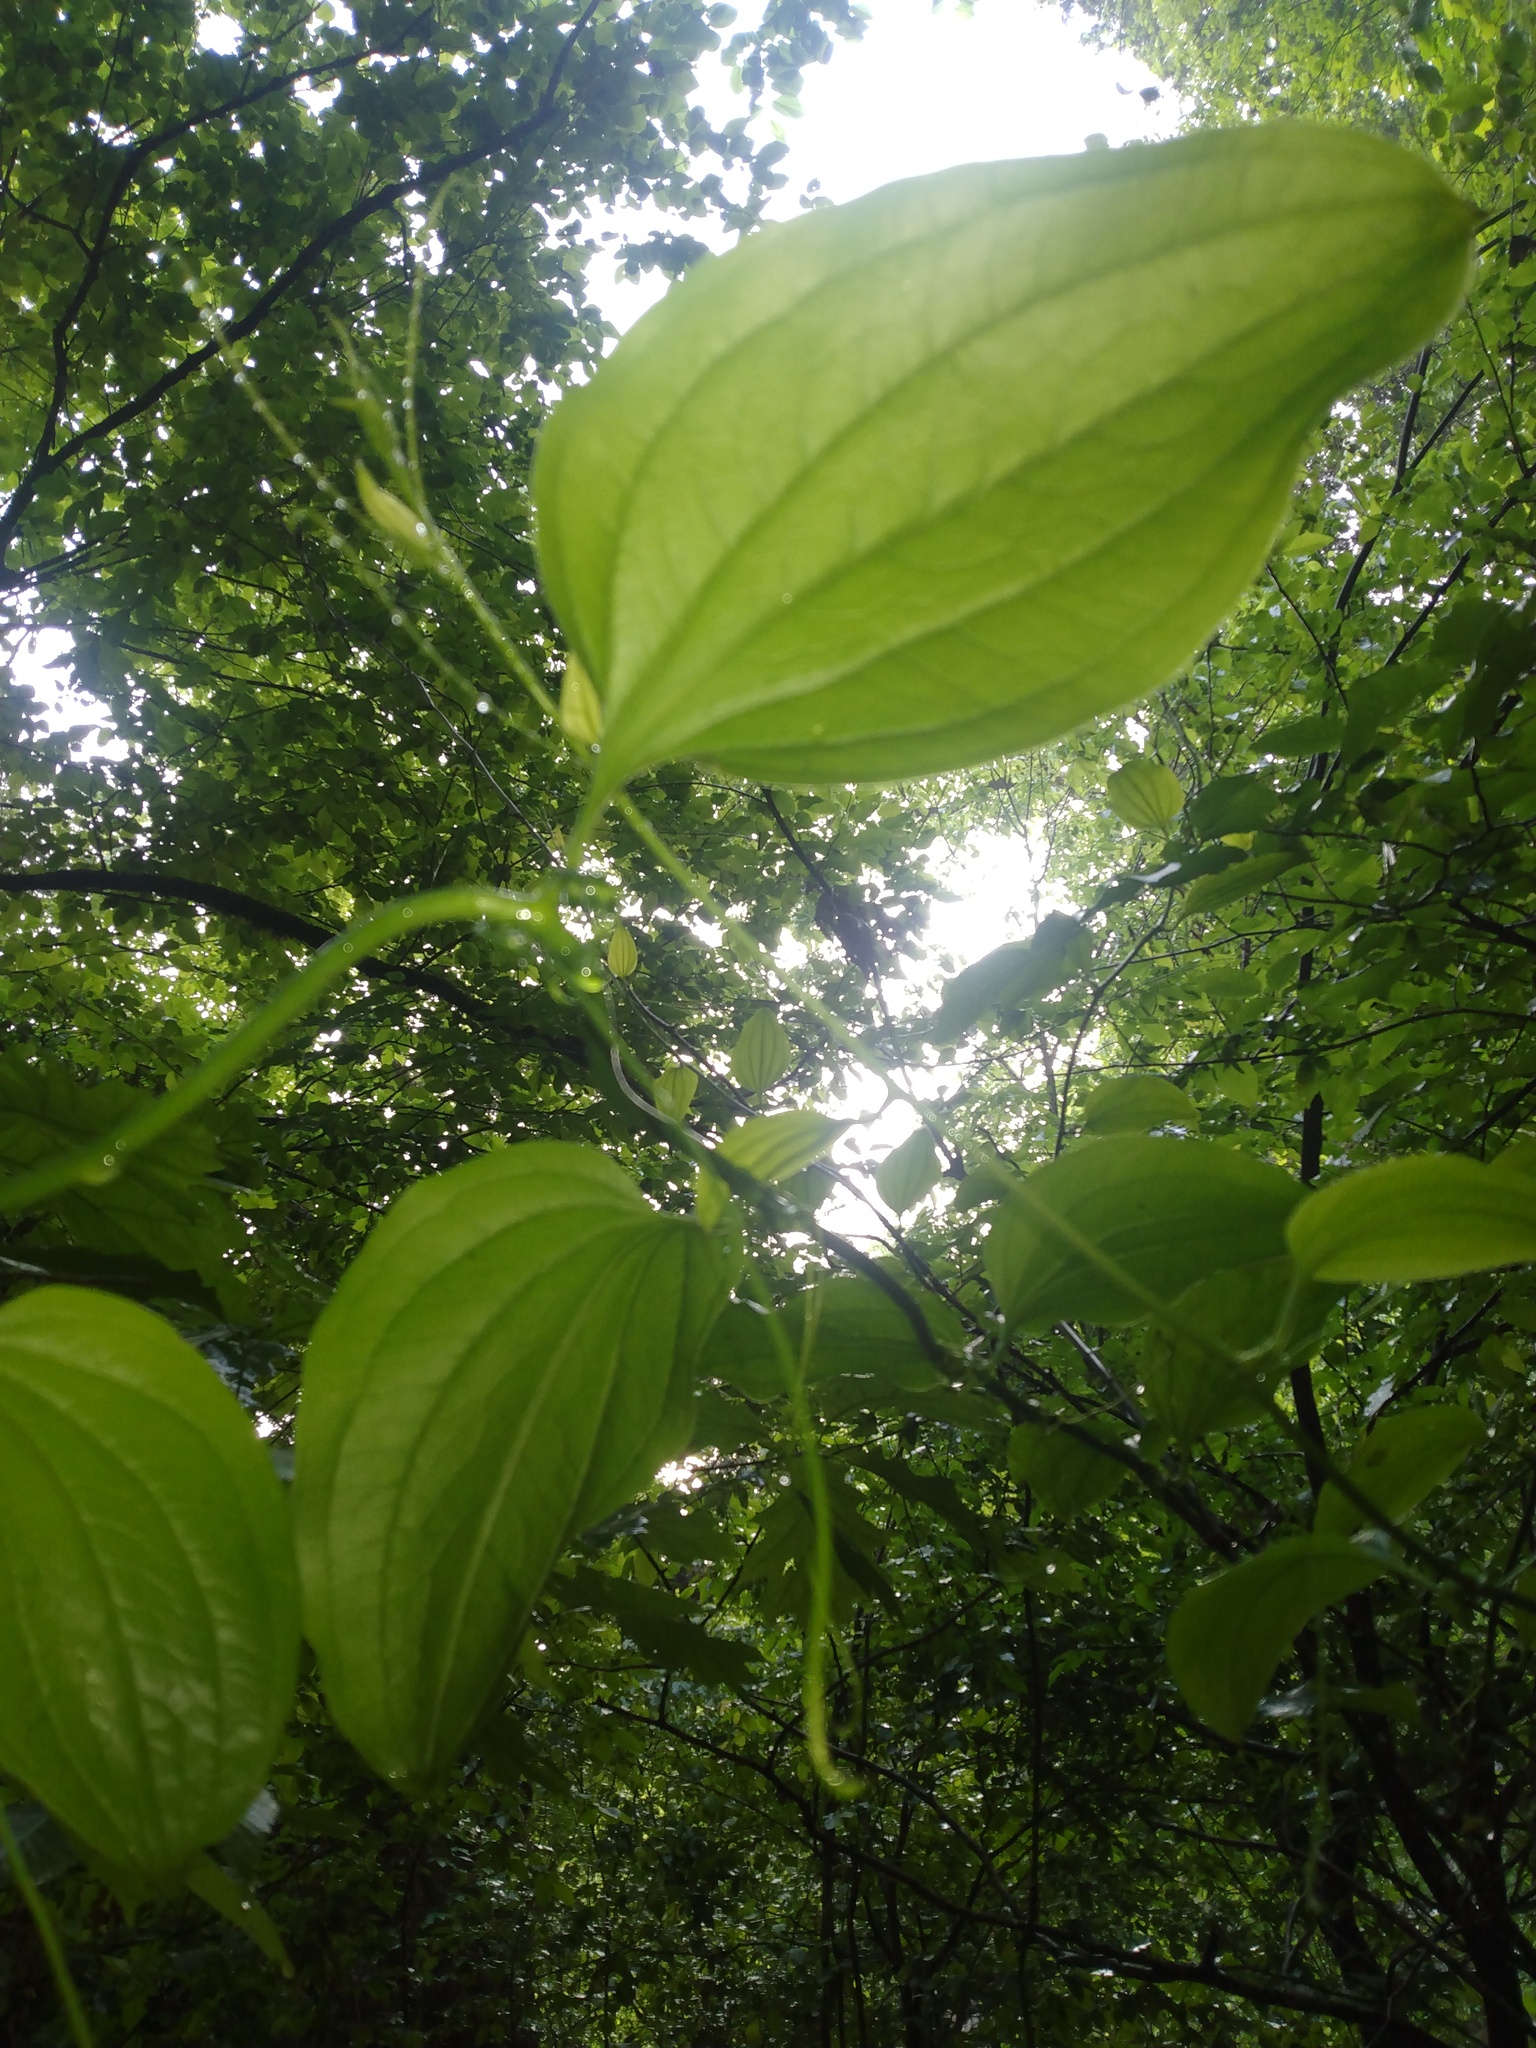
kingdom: Plantae
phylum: Tracheophyta
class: Liliopsida
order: Liliales
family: Smilacaceae
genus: Smilax
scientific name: Smilax tamnoides
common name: Hellfetter
